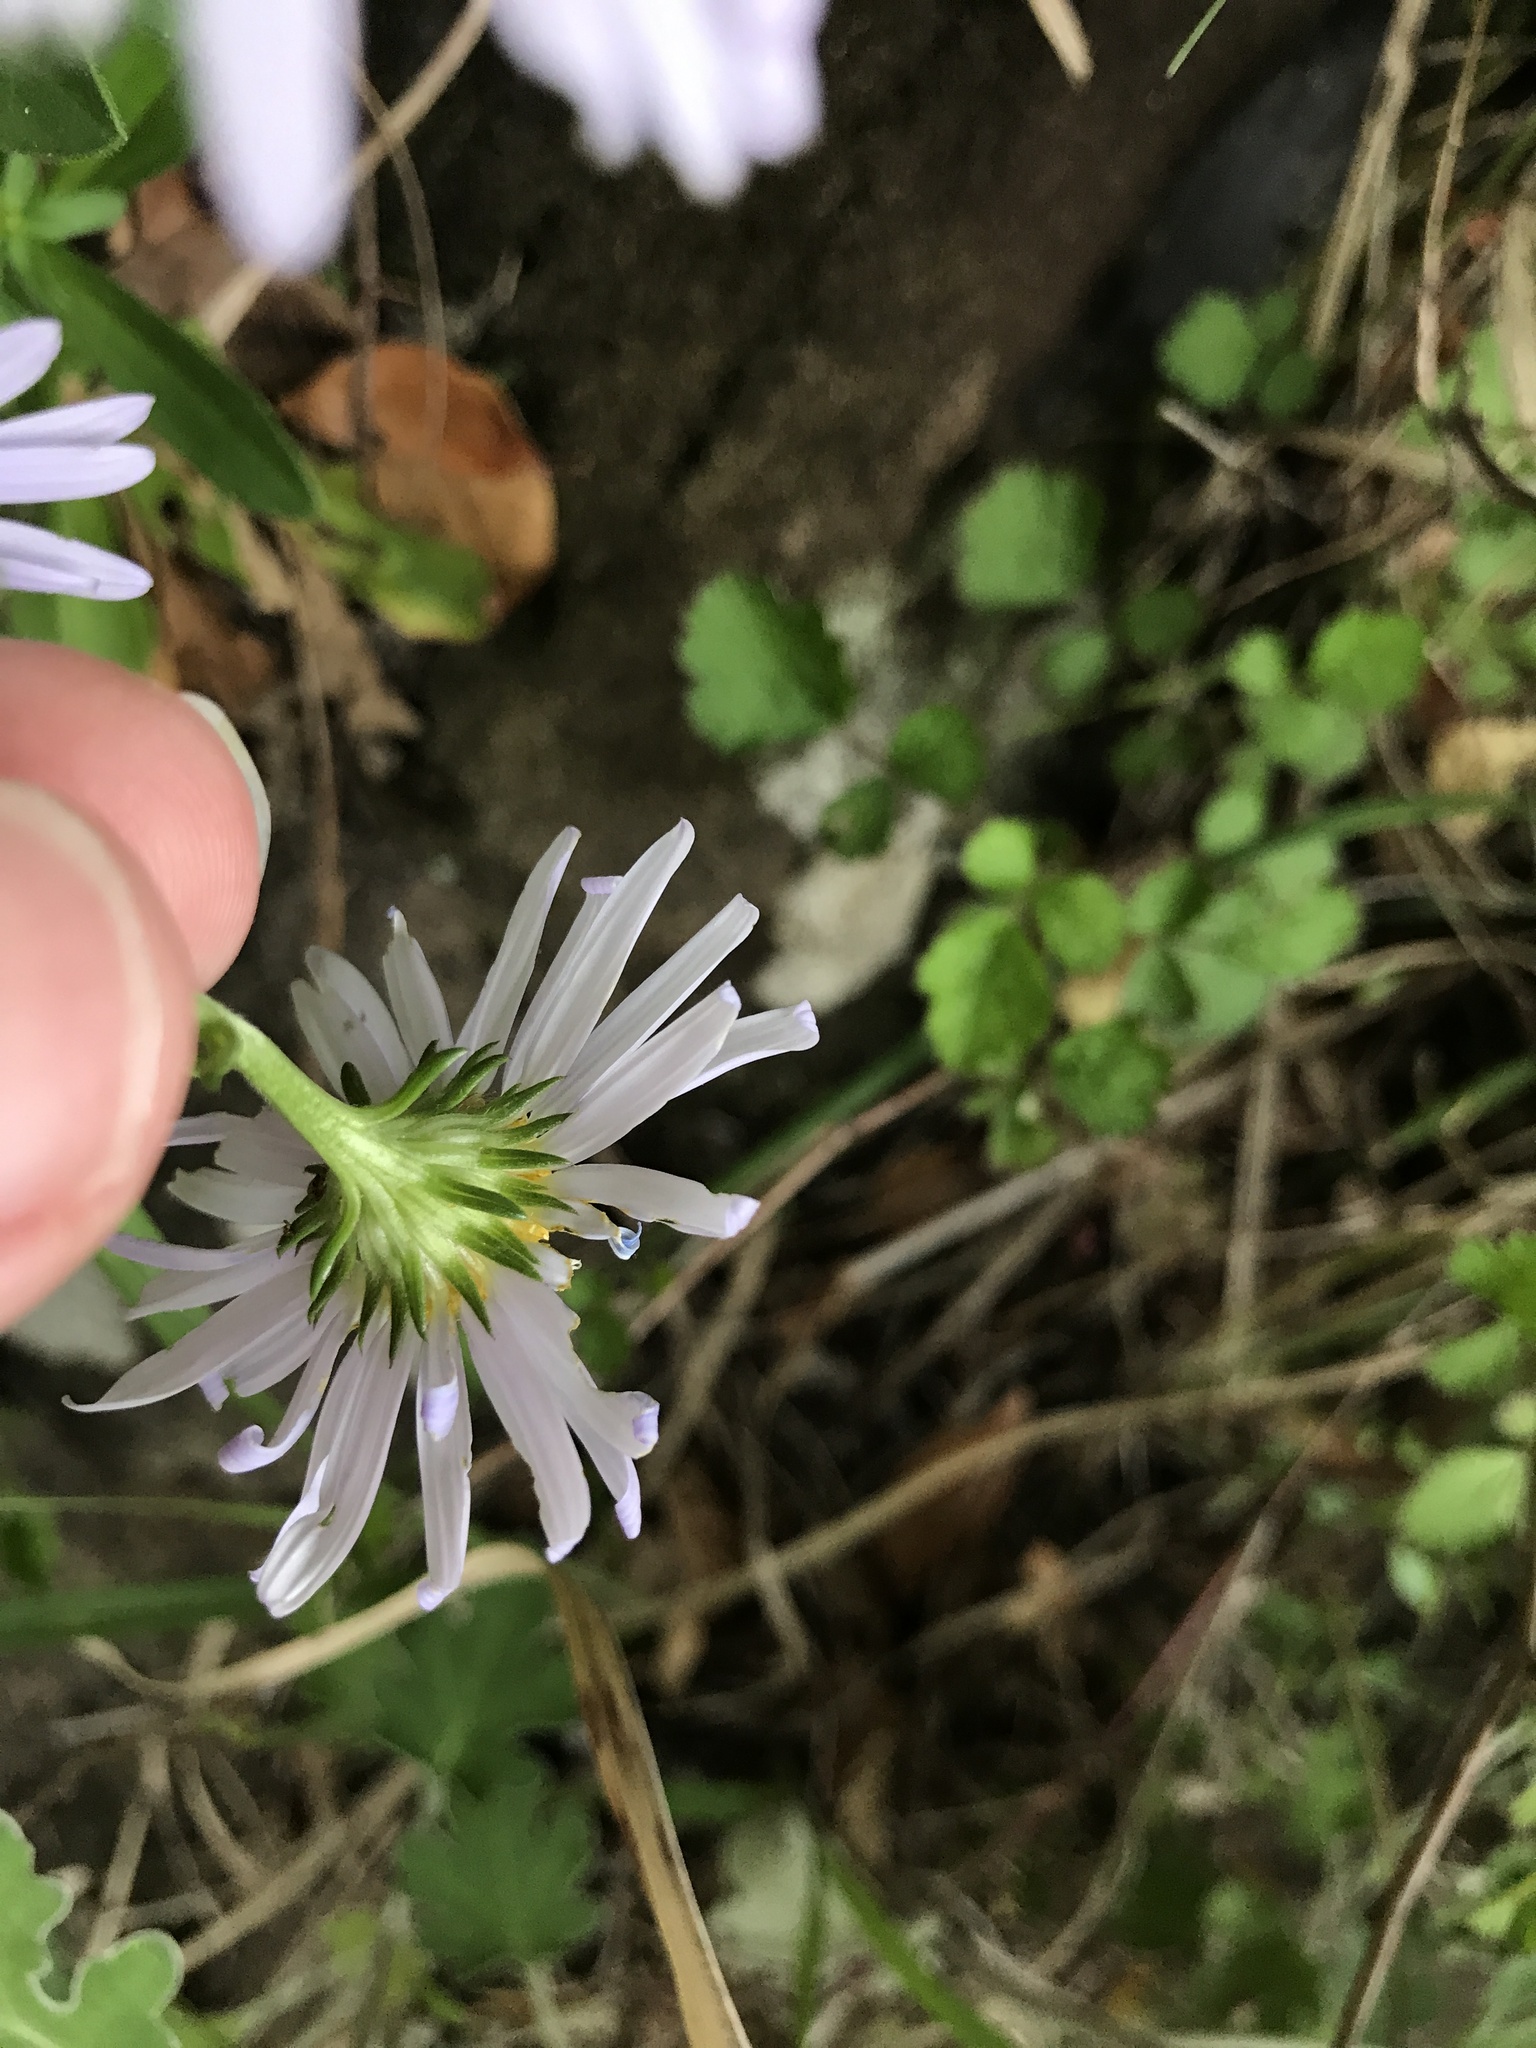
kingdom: Plantae
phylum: Tracheophyta
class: Magnoliopsida
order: Asterales
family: Asteraceae
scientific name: Asteraceae
